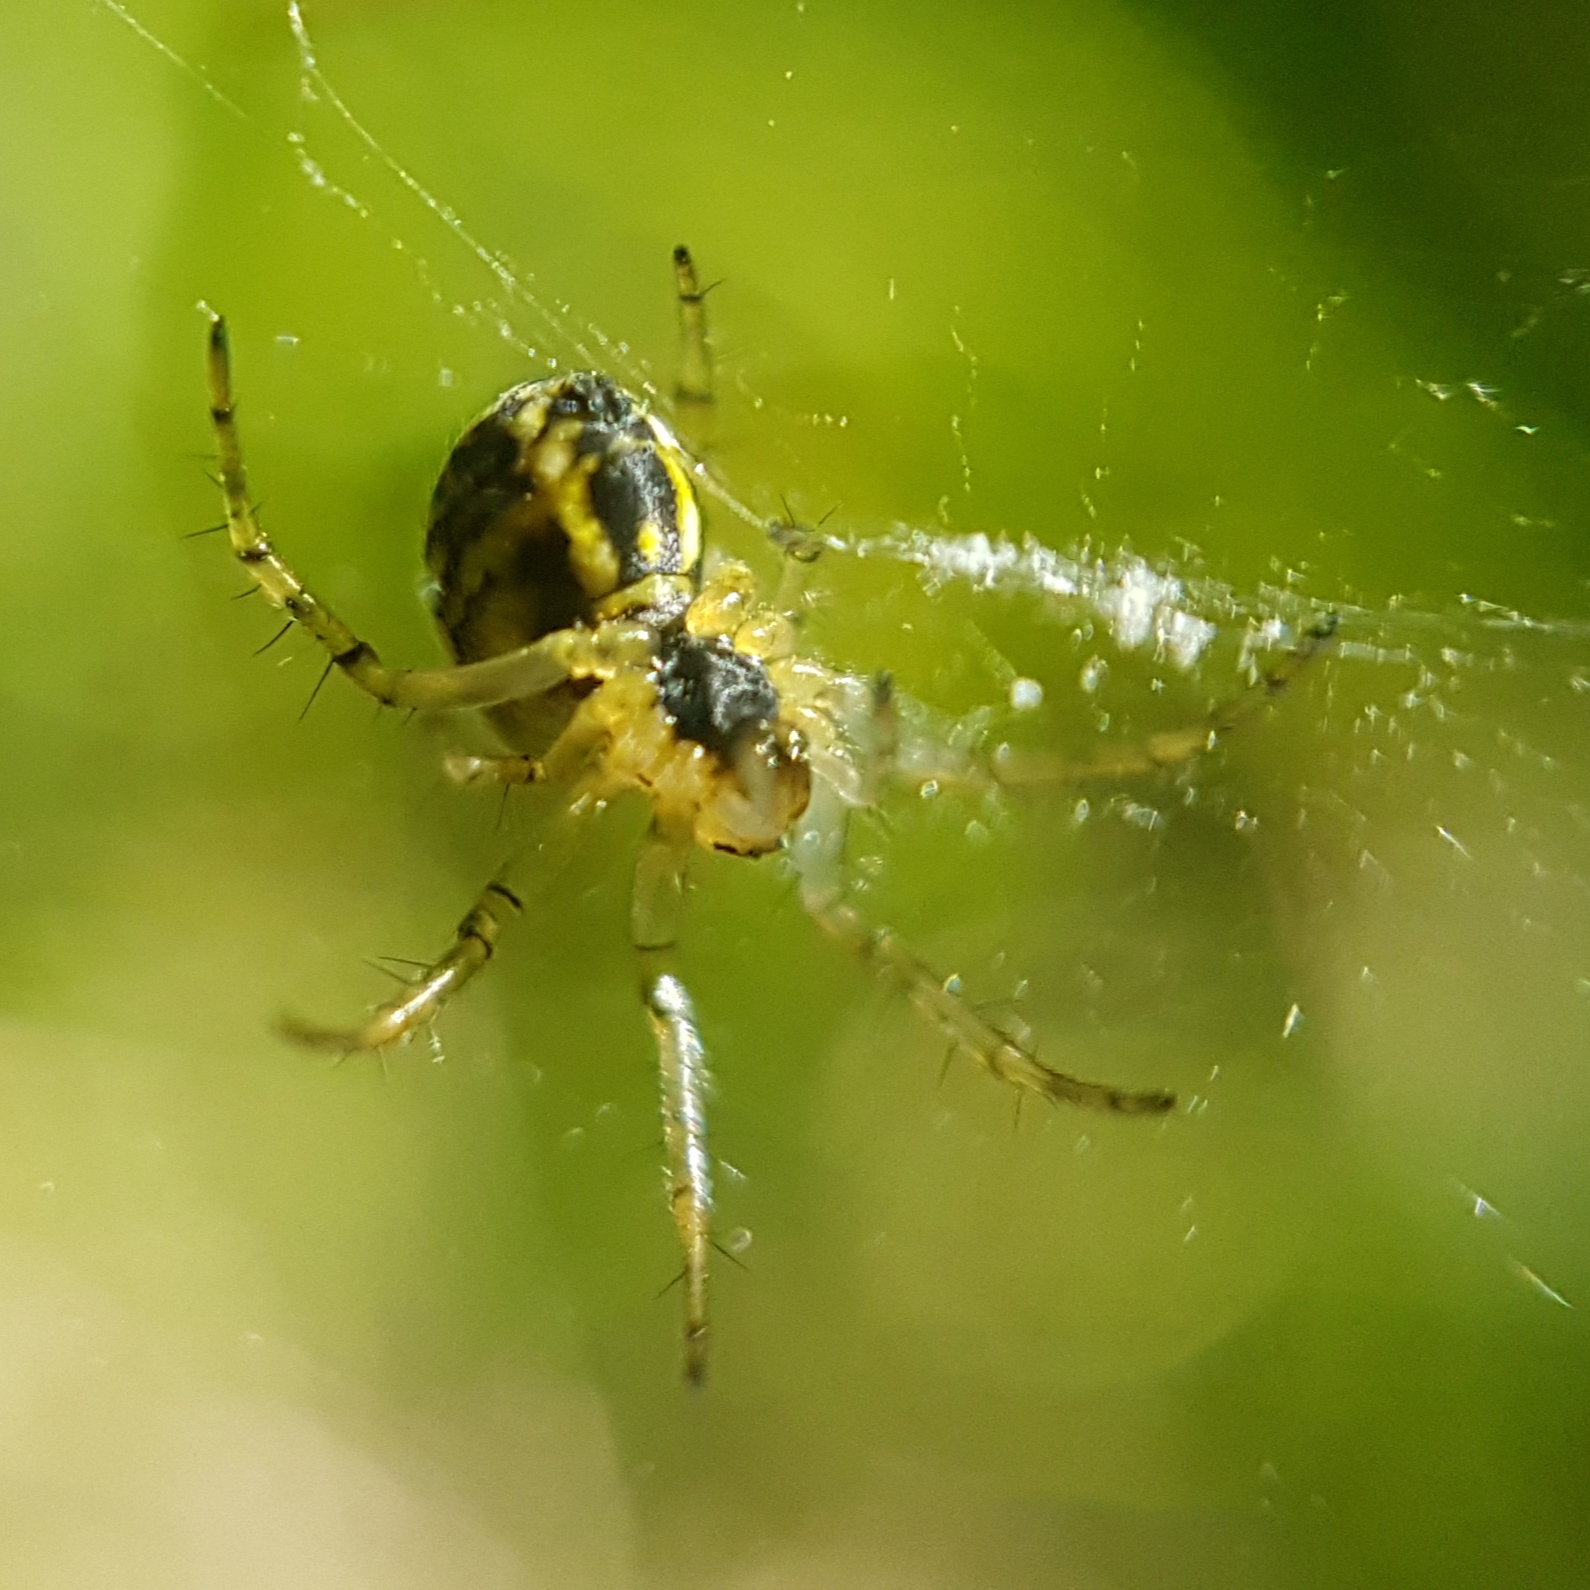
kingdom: Animalia
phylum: Arthropoda
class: Arachnida
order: Araneae
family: Araneidae
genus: Mangora
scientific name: Mangora acalypha
